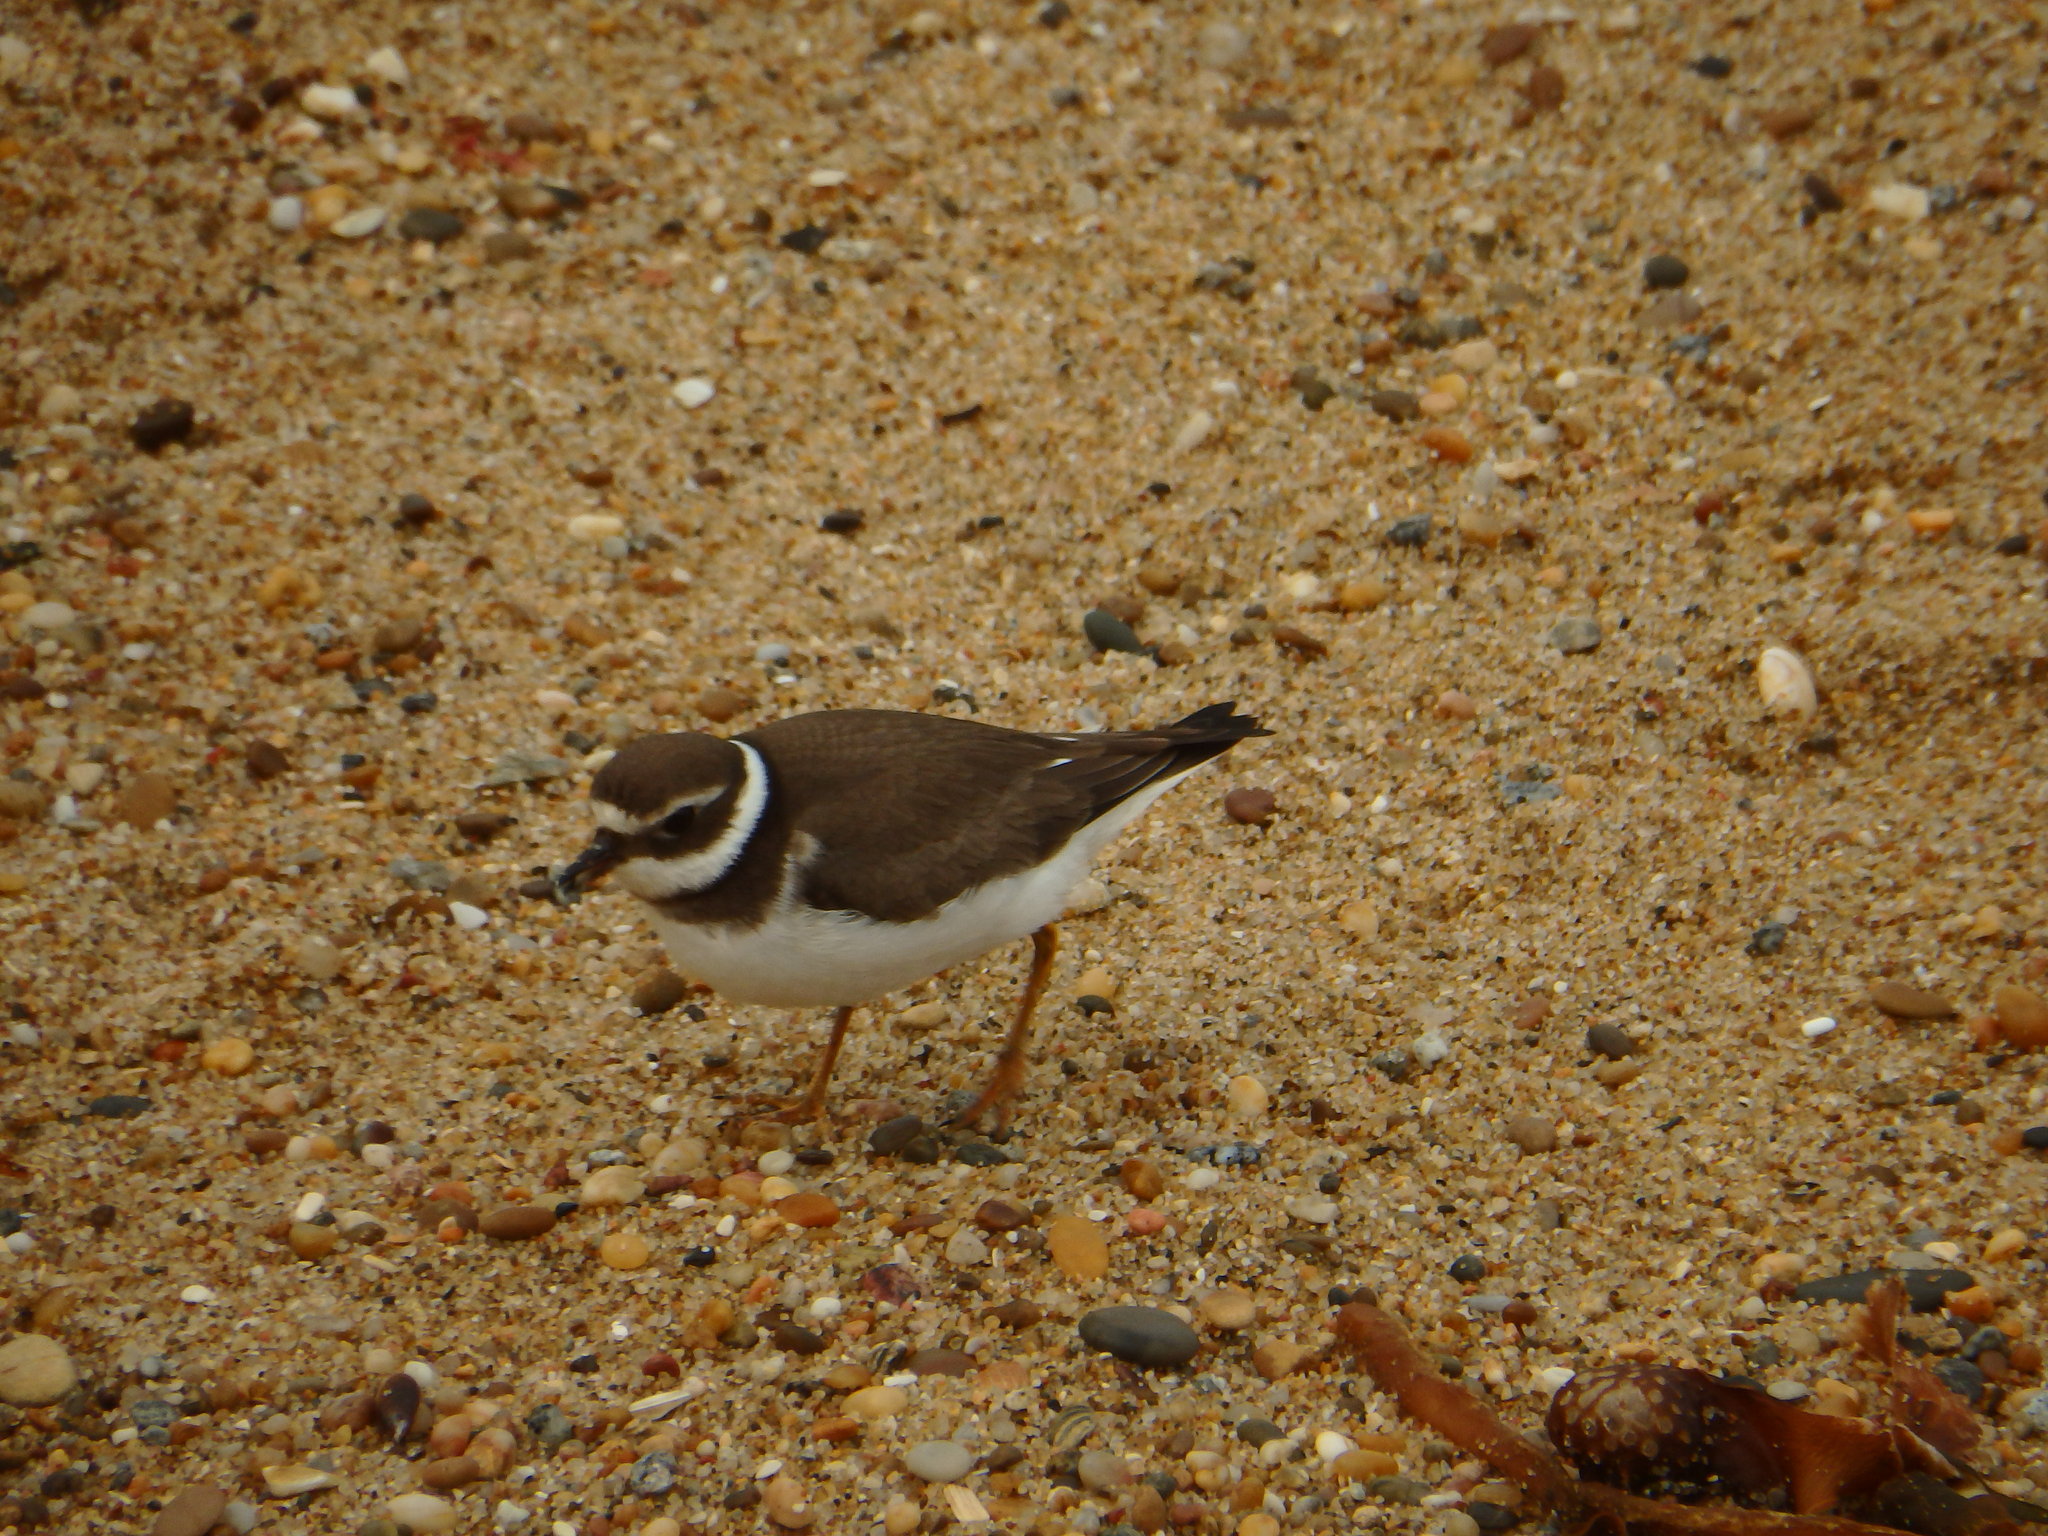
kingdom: Animalia
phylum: Chordata
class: Aves
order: Charadriiformes
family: Charadriidae
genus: Charadrius
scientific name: Charadrius hiaticula
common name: Common ringed plover
